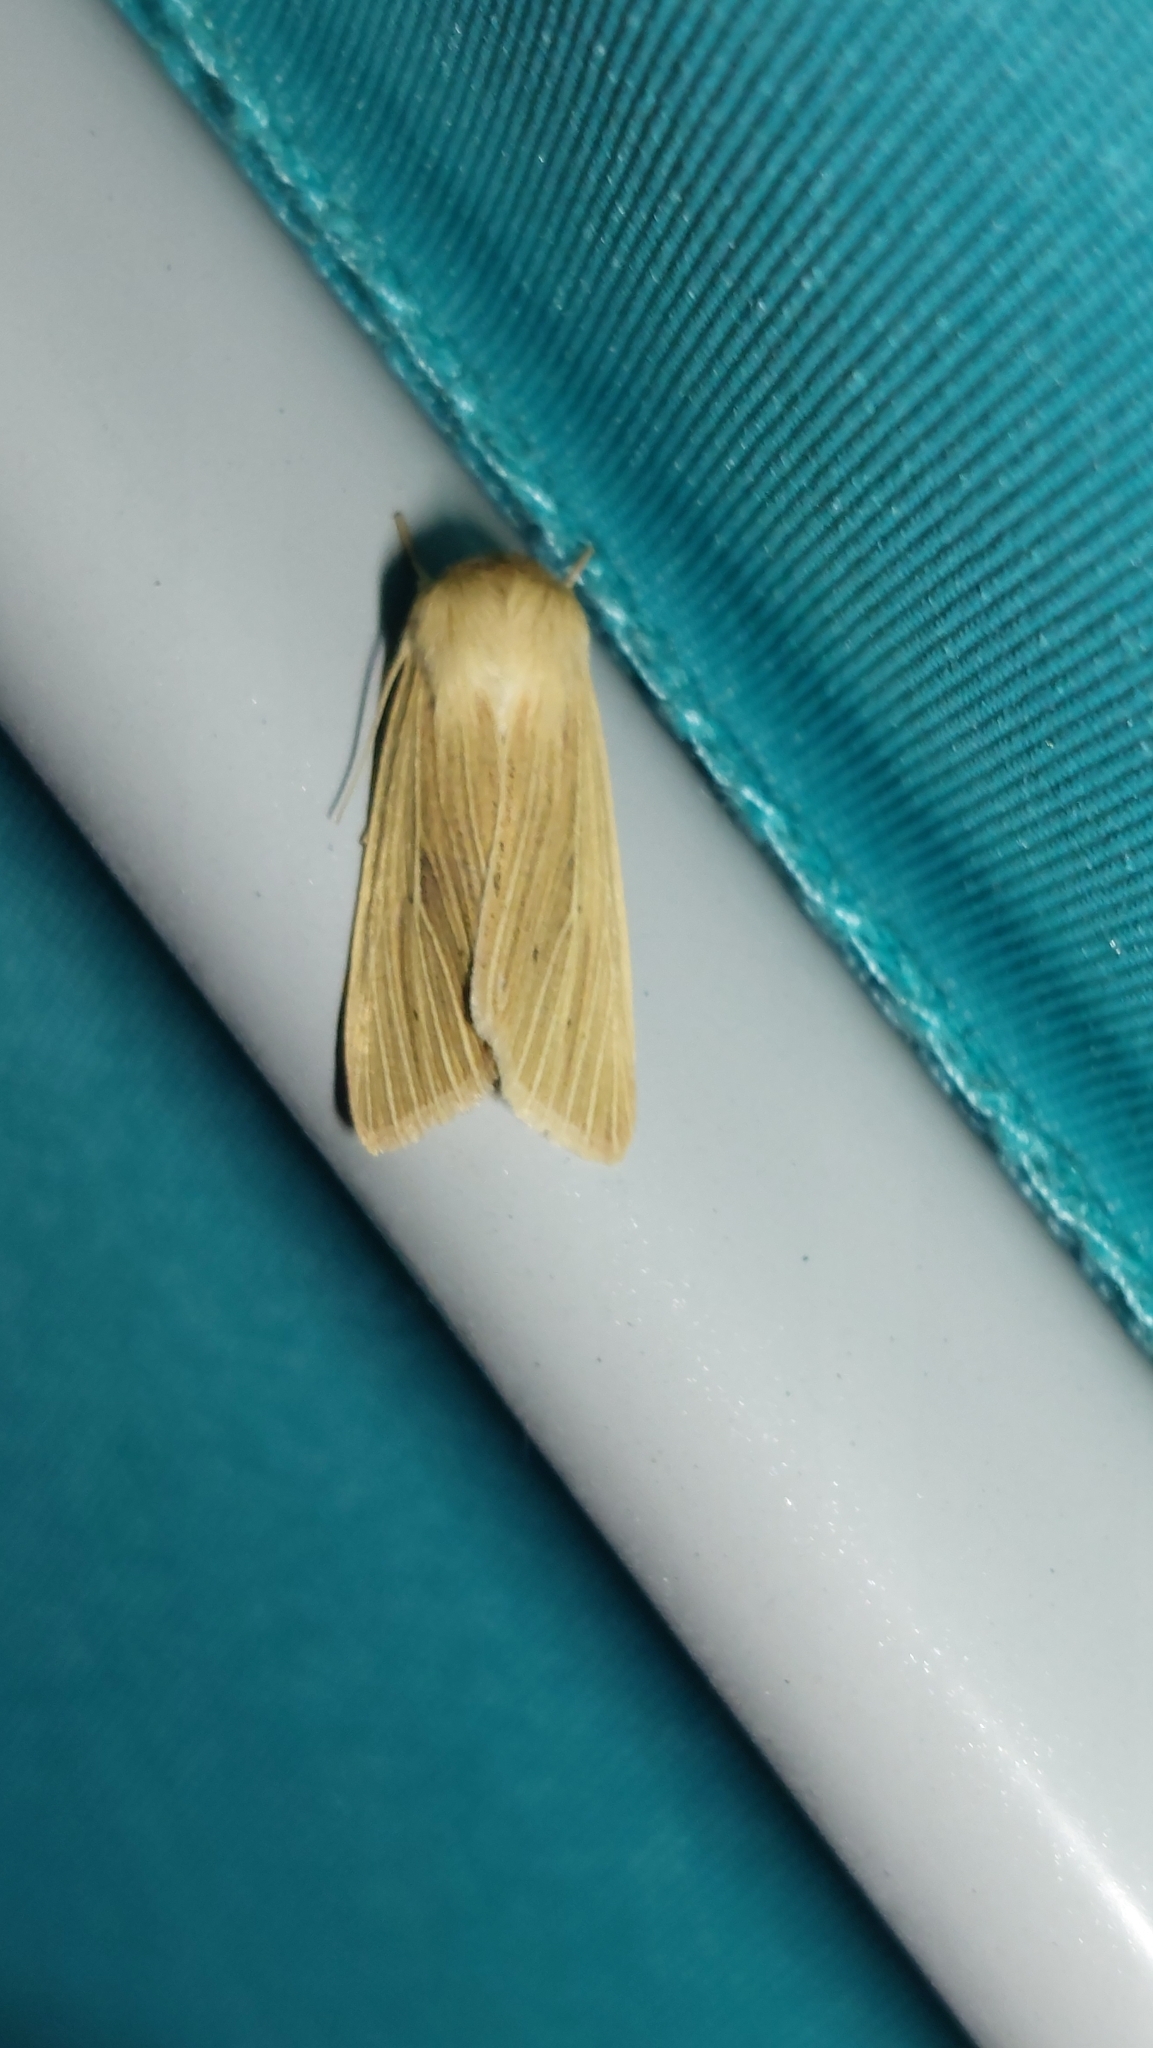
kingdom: Animalia
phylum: Arthropoda
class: Insecta
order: Lepidoptera
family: Noctuidae
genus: Mythimna
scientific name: Mythimna pallens
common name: Common wainscot
